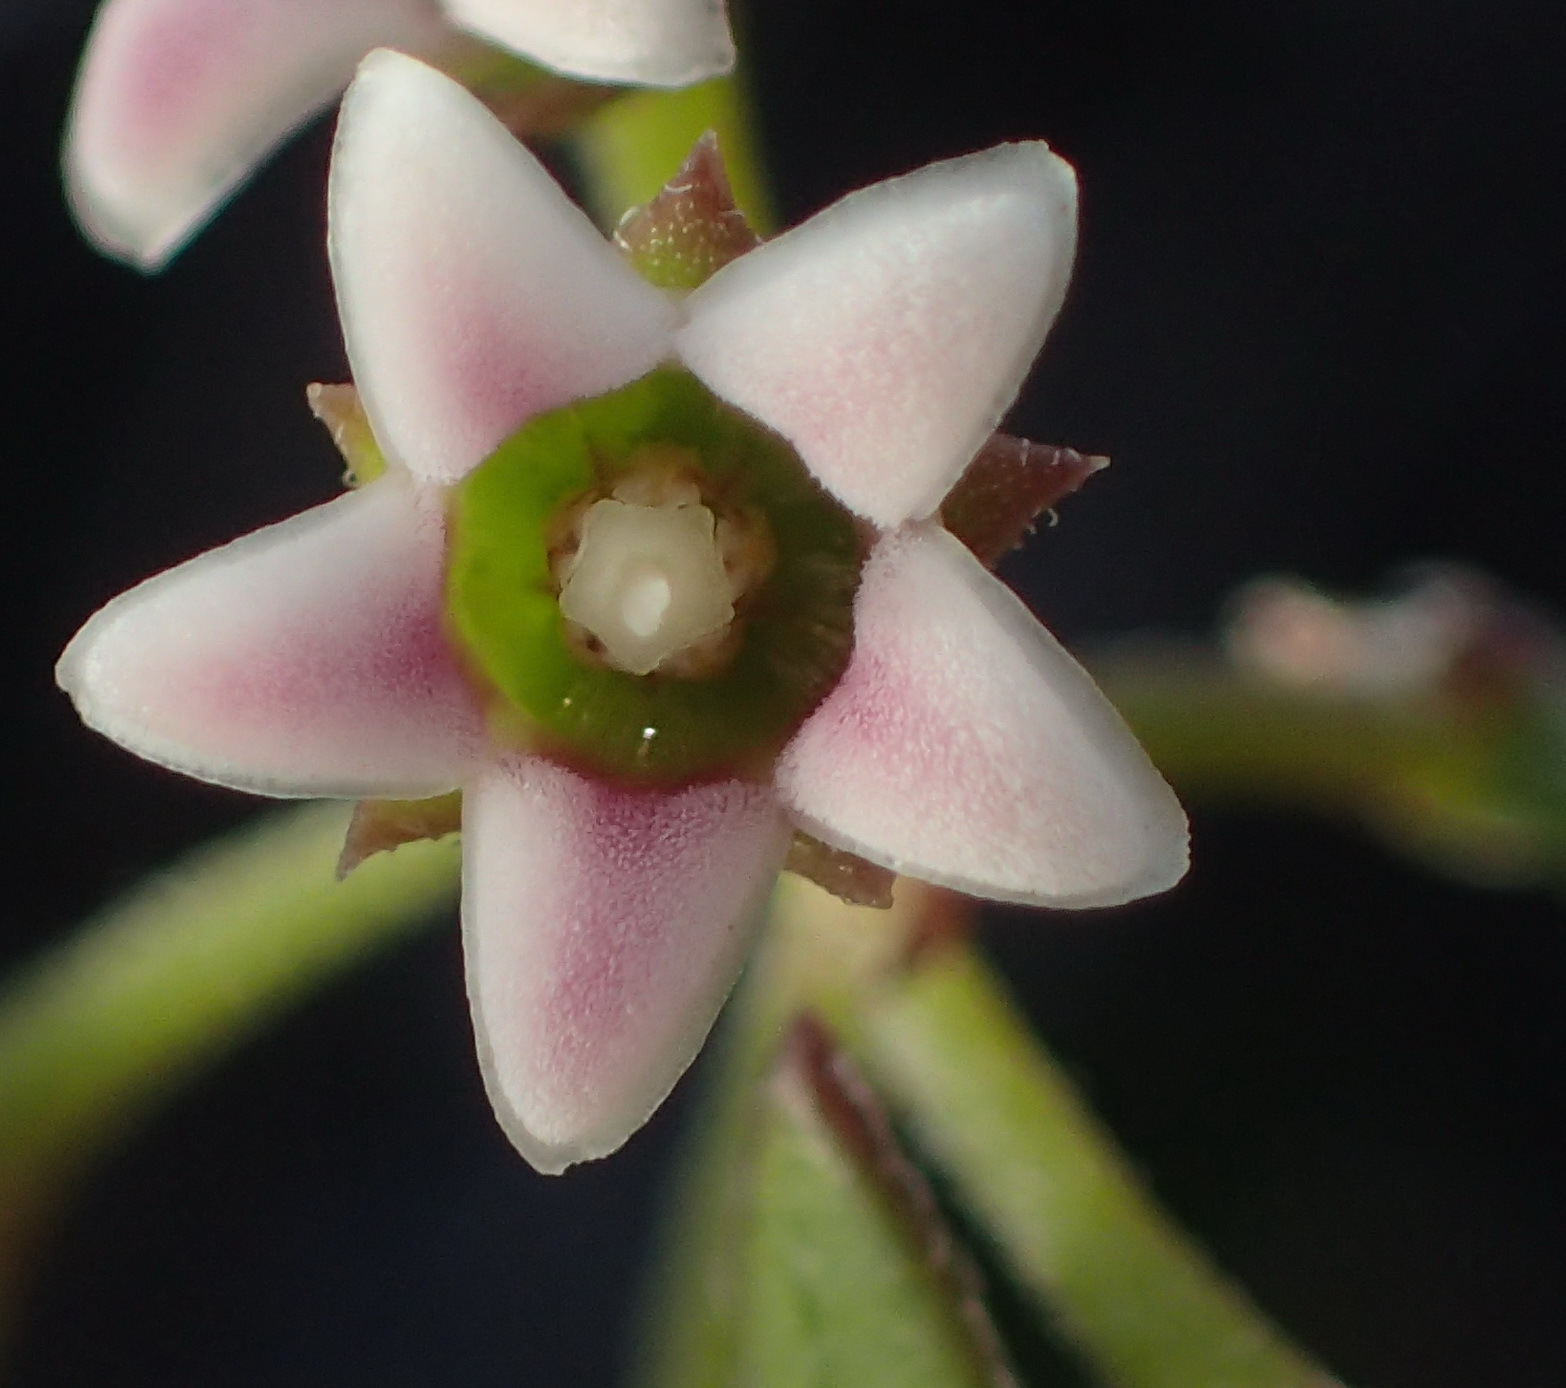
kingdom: Plantae
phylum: Tracheophyta
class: Magnoliopsida
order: Gentianales
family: Apocynaceae
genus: Astephanus
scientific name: Astephanus triflorus
